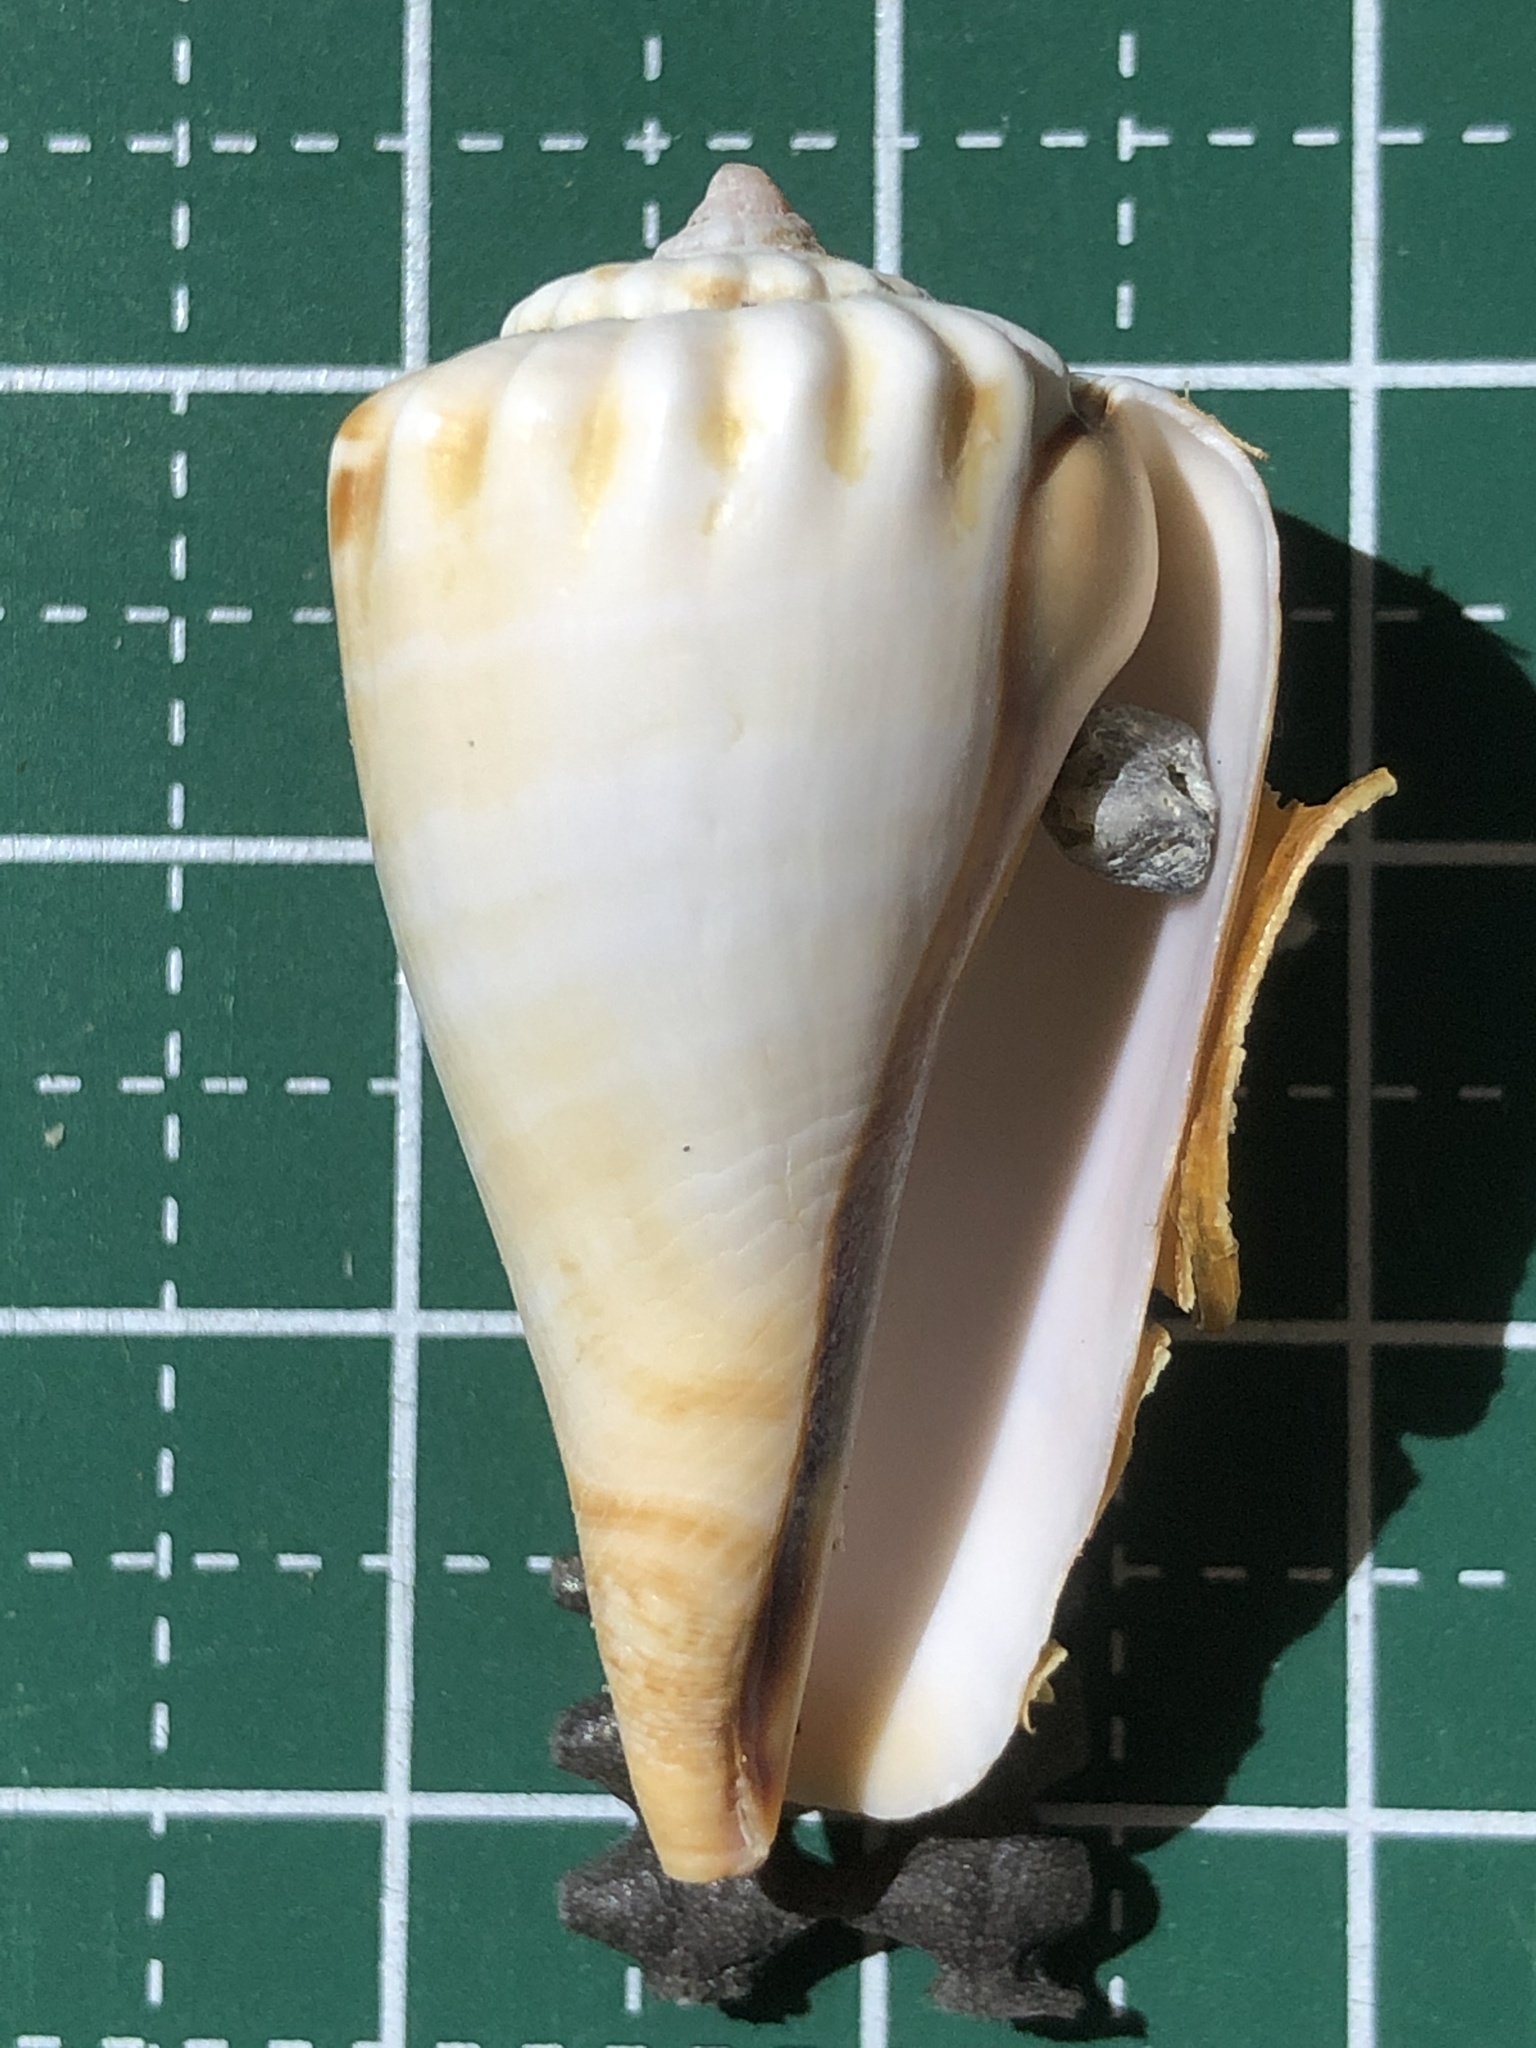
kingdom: Animalia
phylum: Mollusca
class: Gastropoda
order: Littorinimorpha
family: Strombidae
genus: Conomurex
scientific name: Conomurex luhuanus
